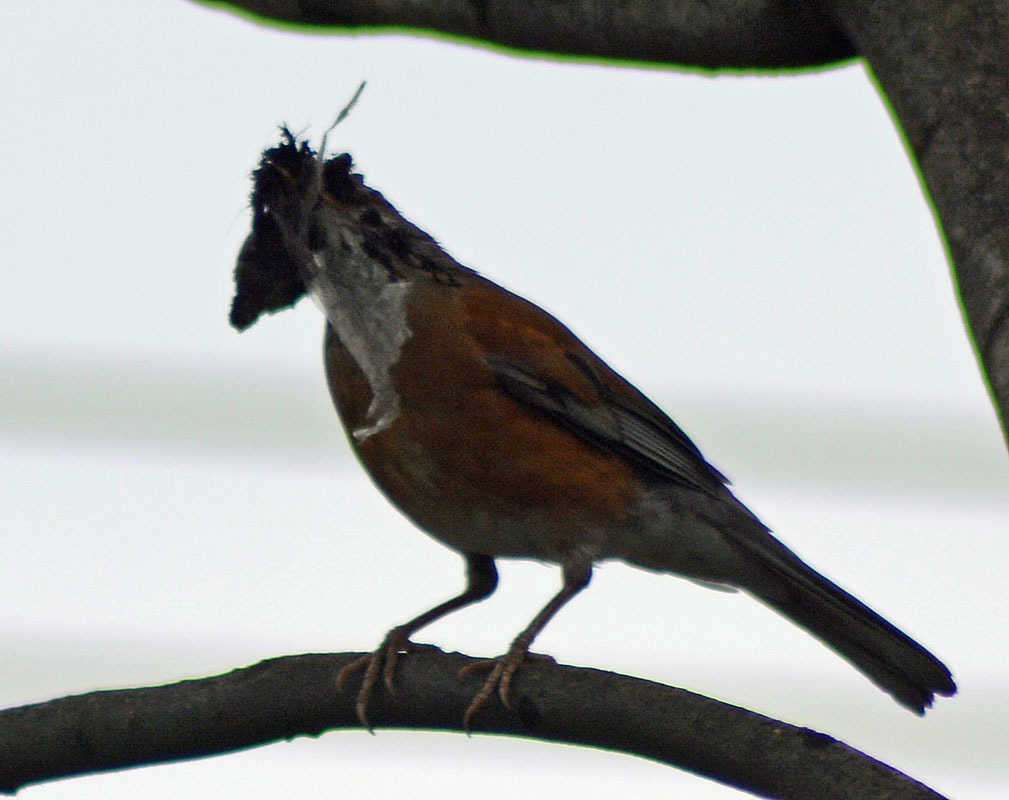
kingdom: Animalia
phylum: Chordata
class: Aves
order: Passeriformes
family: Turdidae
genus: Turdus
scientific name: Turdus rufopalliatus
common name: Rufous-backed robin
